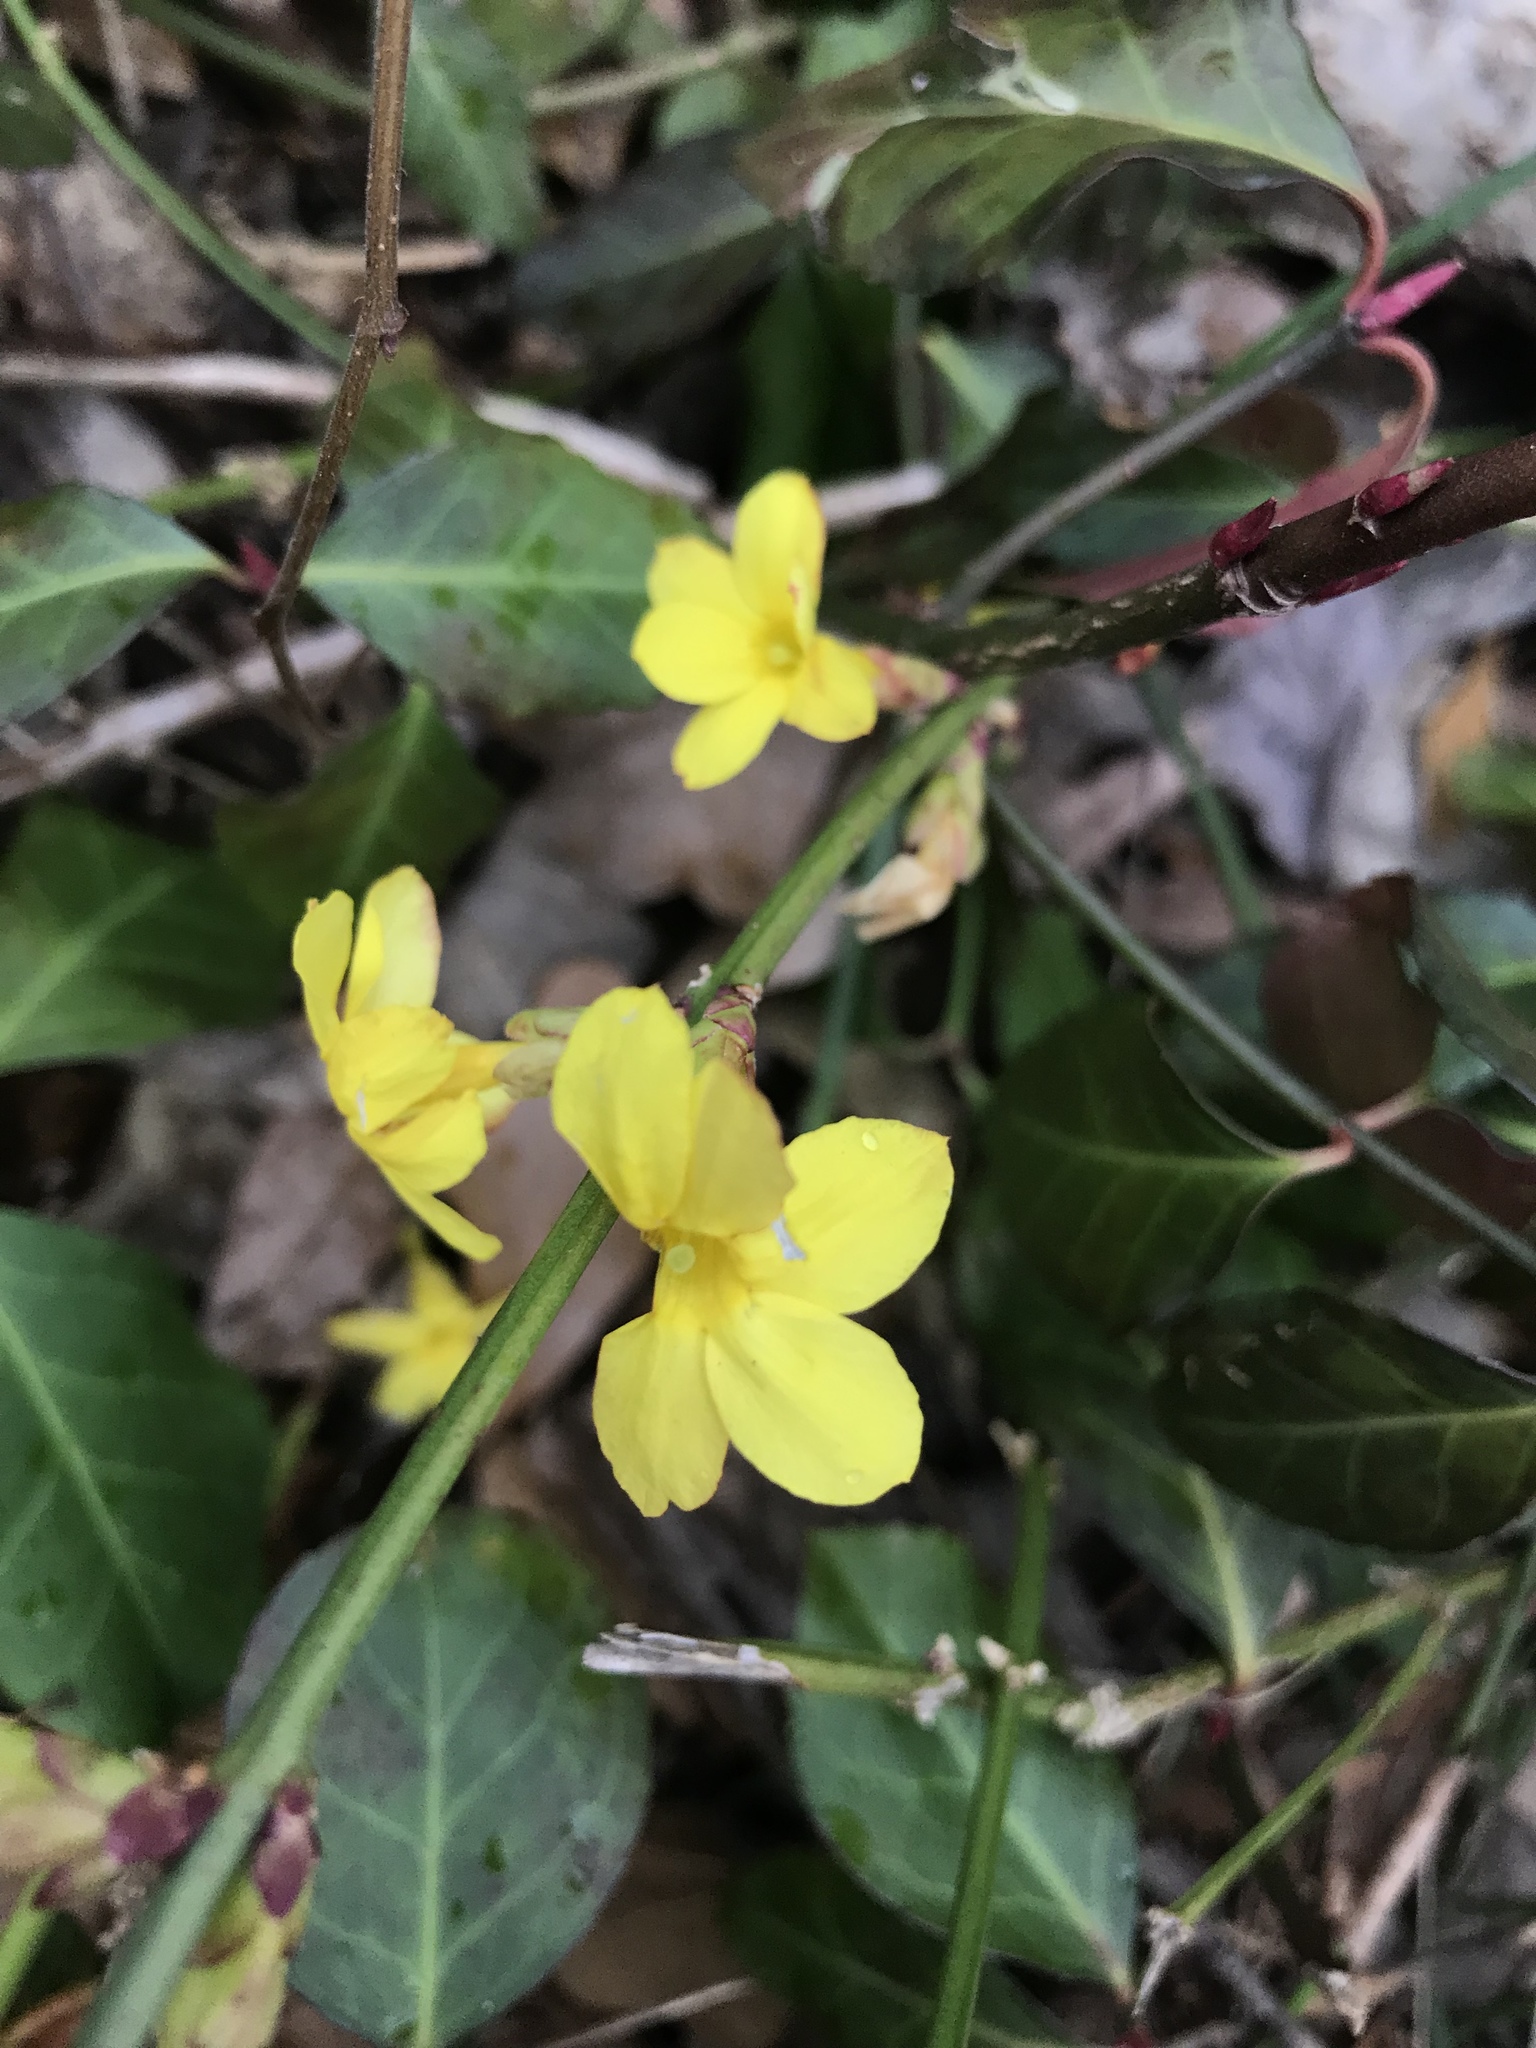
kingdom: Plantae
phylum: Tracheophyta
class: Magnoliopsida
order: Lamiales
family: Oleaceae
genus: Jasminum
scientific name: Jasminum nudiflorum
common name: Winter jasmine
